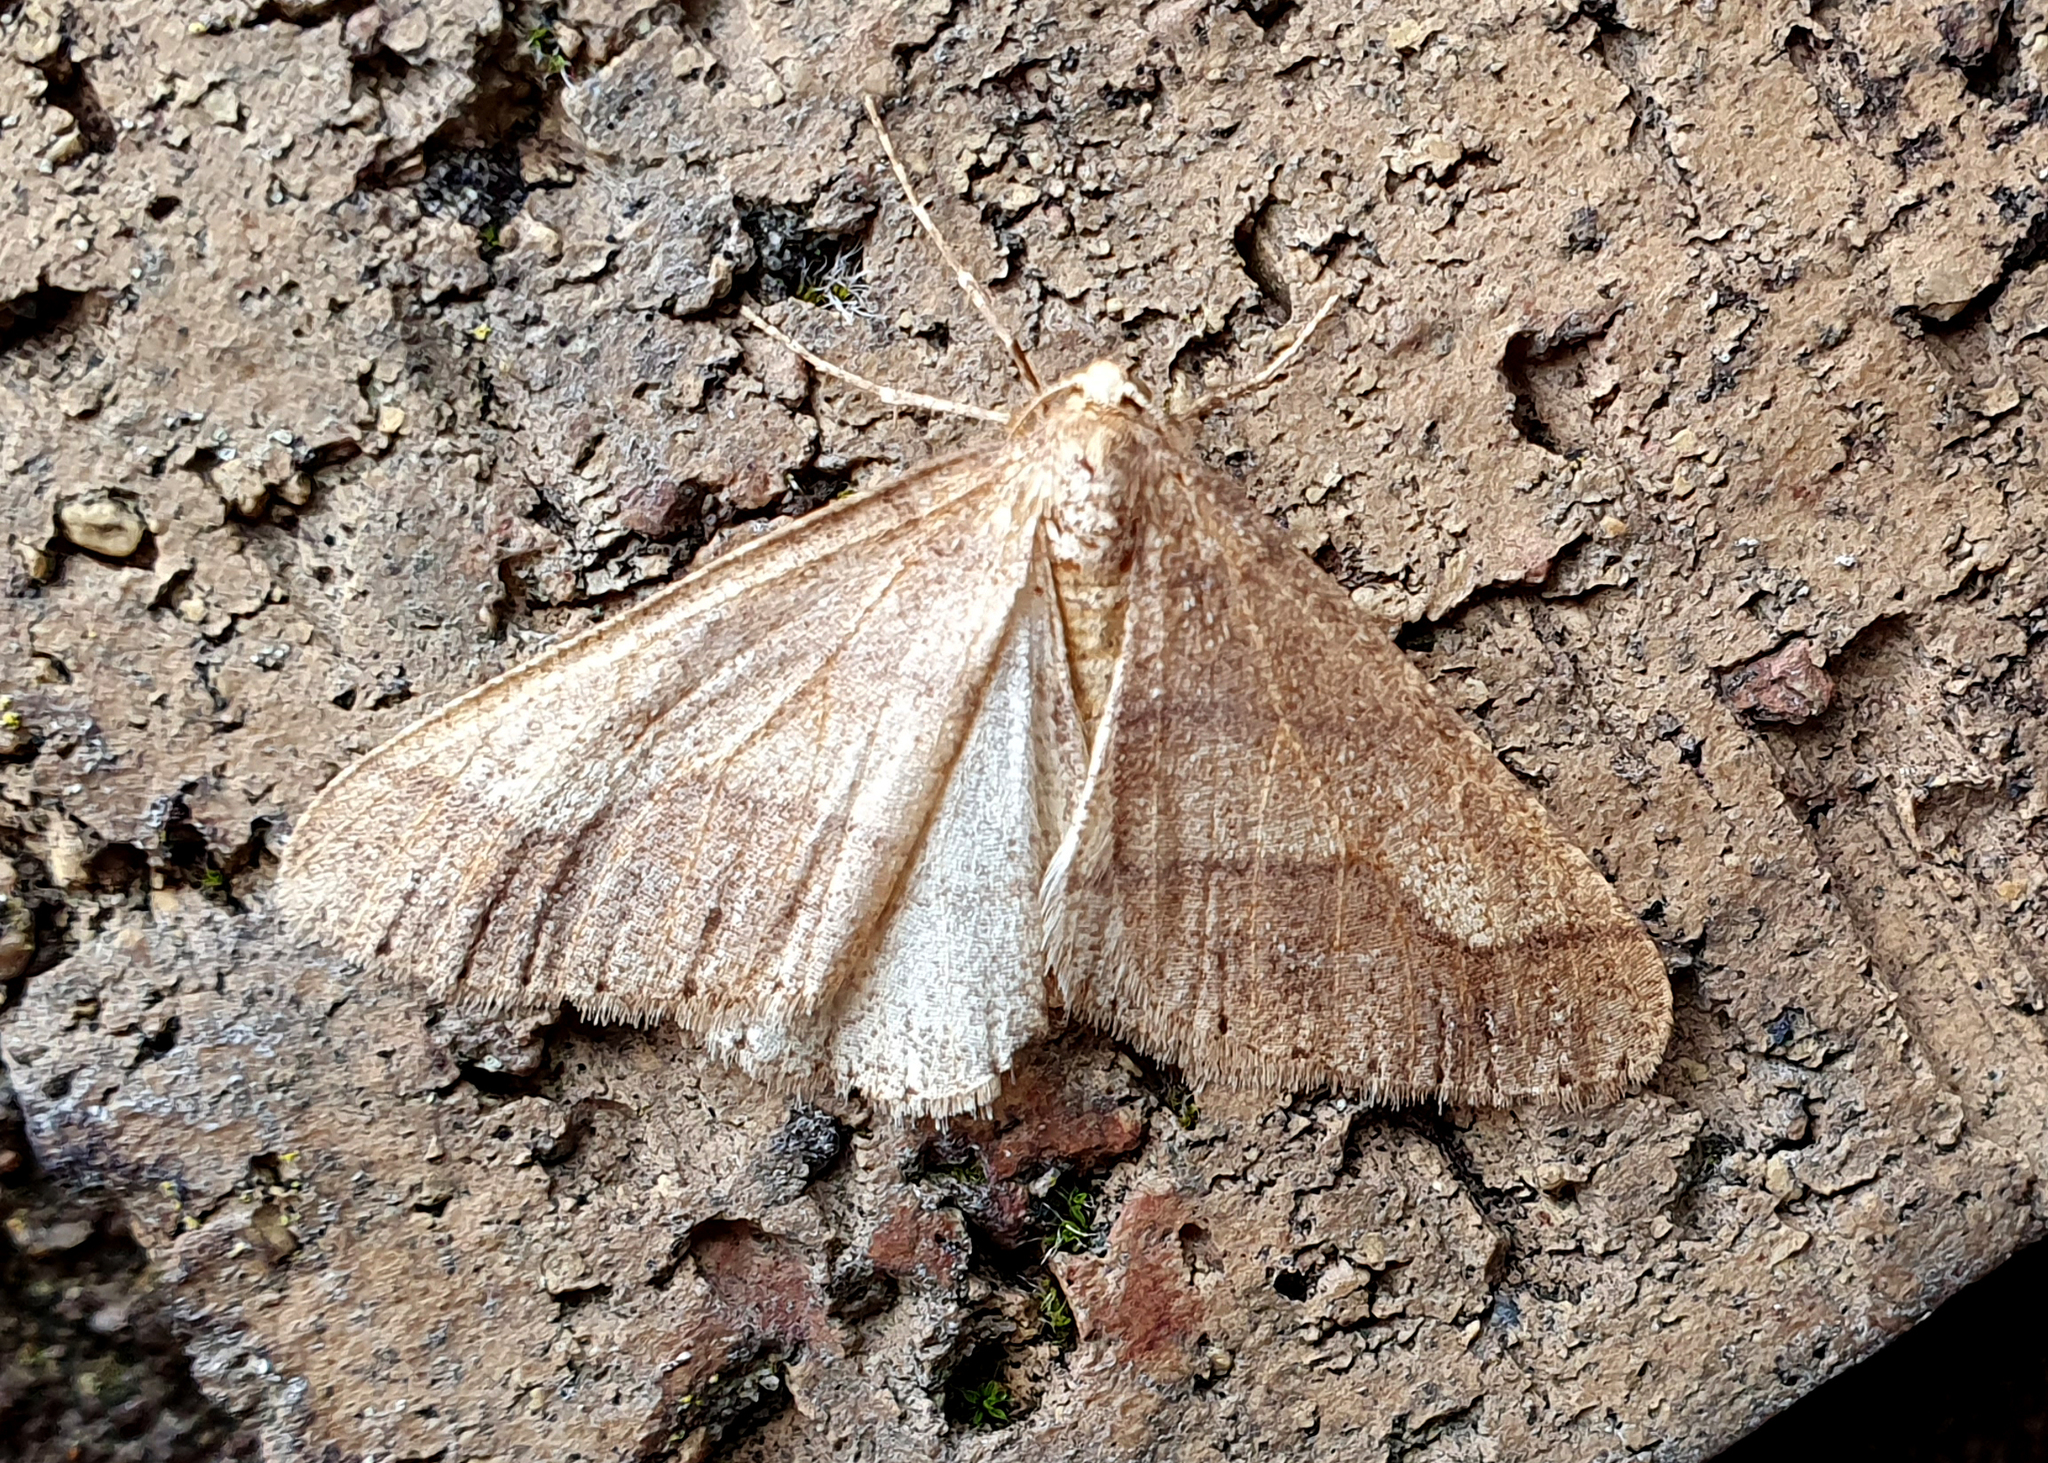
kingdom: Animalia
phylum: Arthropoda
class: Insecta
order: Lepidoptera
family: Geometridae
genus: Agriopis
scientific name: Agriopis marginaria
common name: Dotted border
